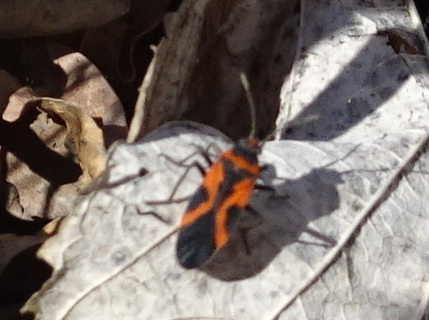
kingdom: Animalia
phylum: Arthropoda
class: Insecta
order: Hemiptera
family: Lygaeidae
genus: Lygaeus
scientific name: Lygaeus turcicus
